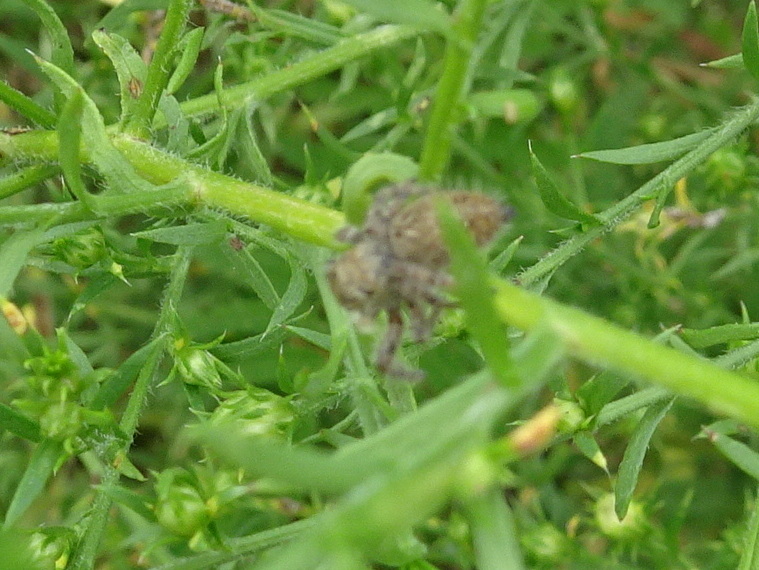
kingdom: Animalia
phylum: Arthropoda
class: Arachnida
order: Araneae
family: Salticidae
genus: Phidippus
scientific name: Phidippus princeps
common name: Grayish jumping spider
